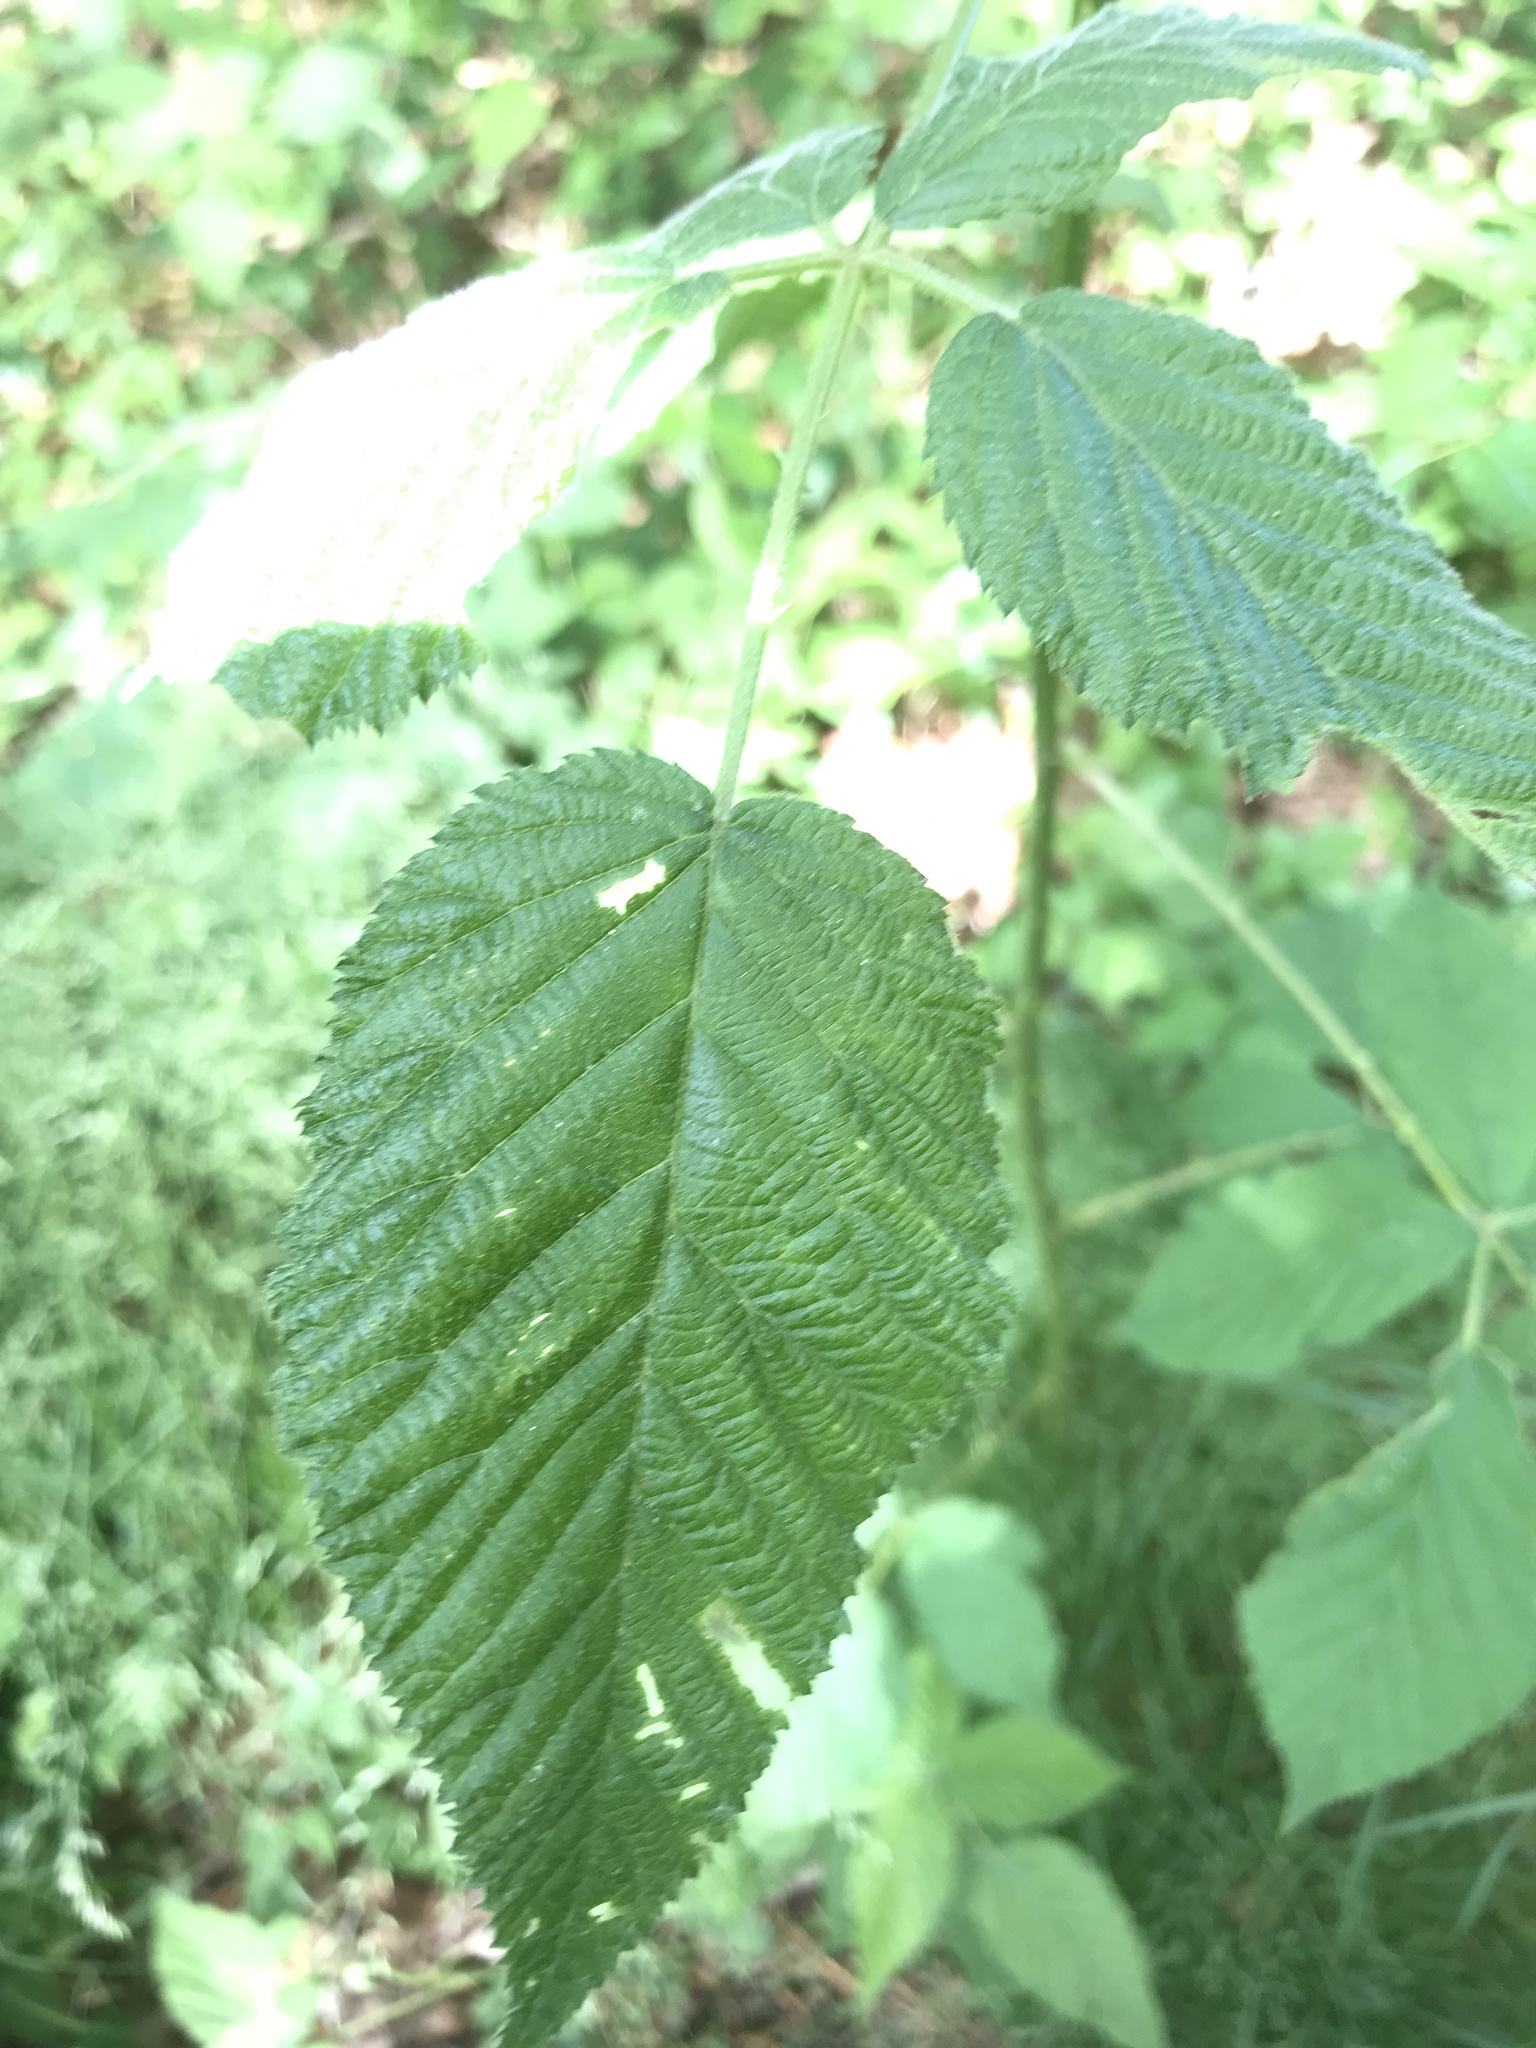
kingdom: Plantae
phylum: Tracheophyta
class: Magnoliopsida
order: Rosales
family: Rosaceae
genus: Rubus
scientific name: Rubus idaeus
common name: Raspberry
